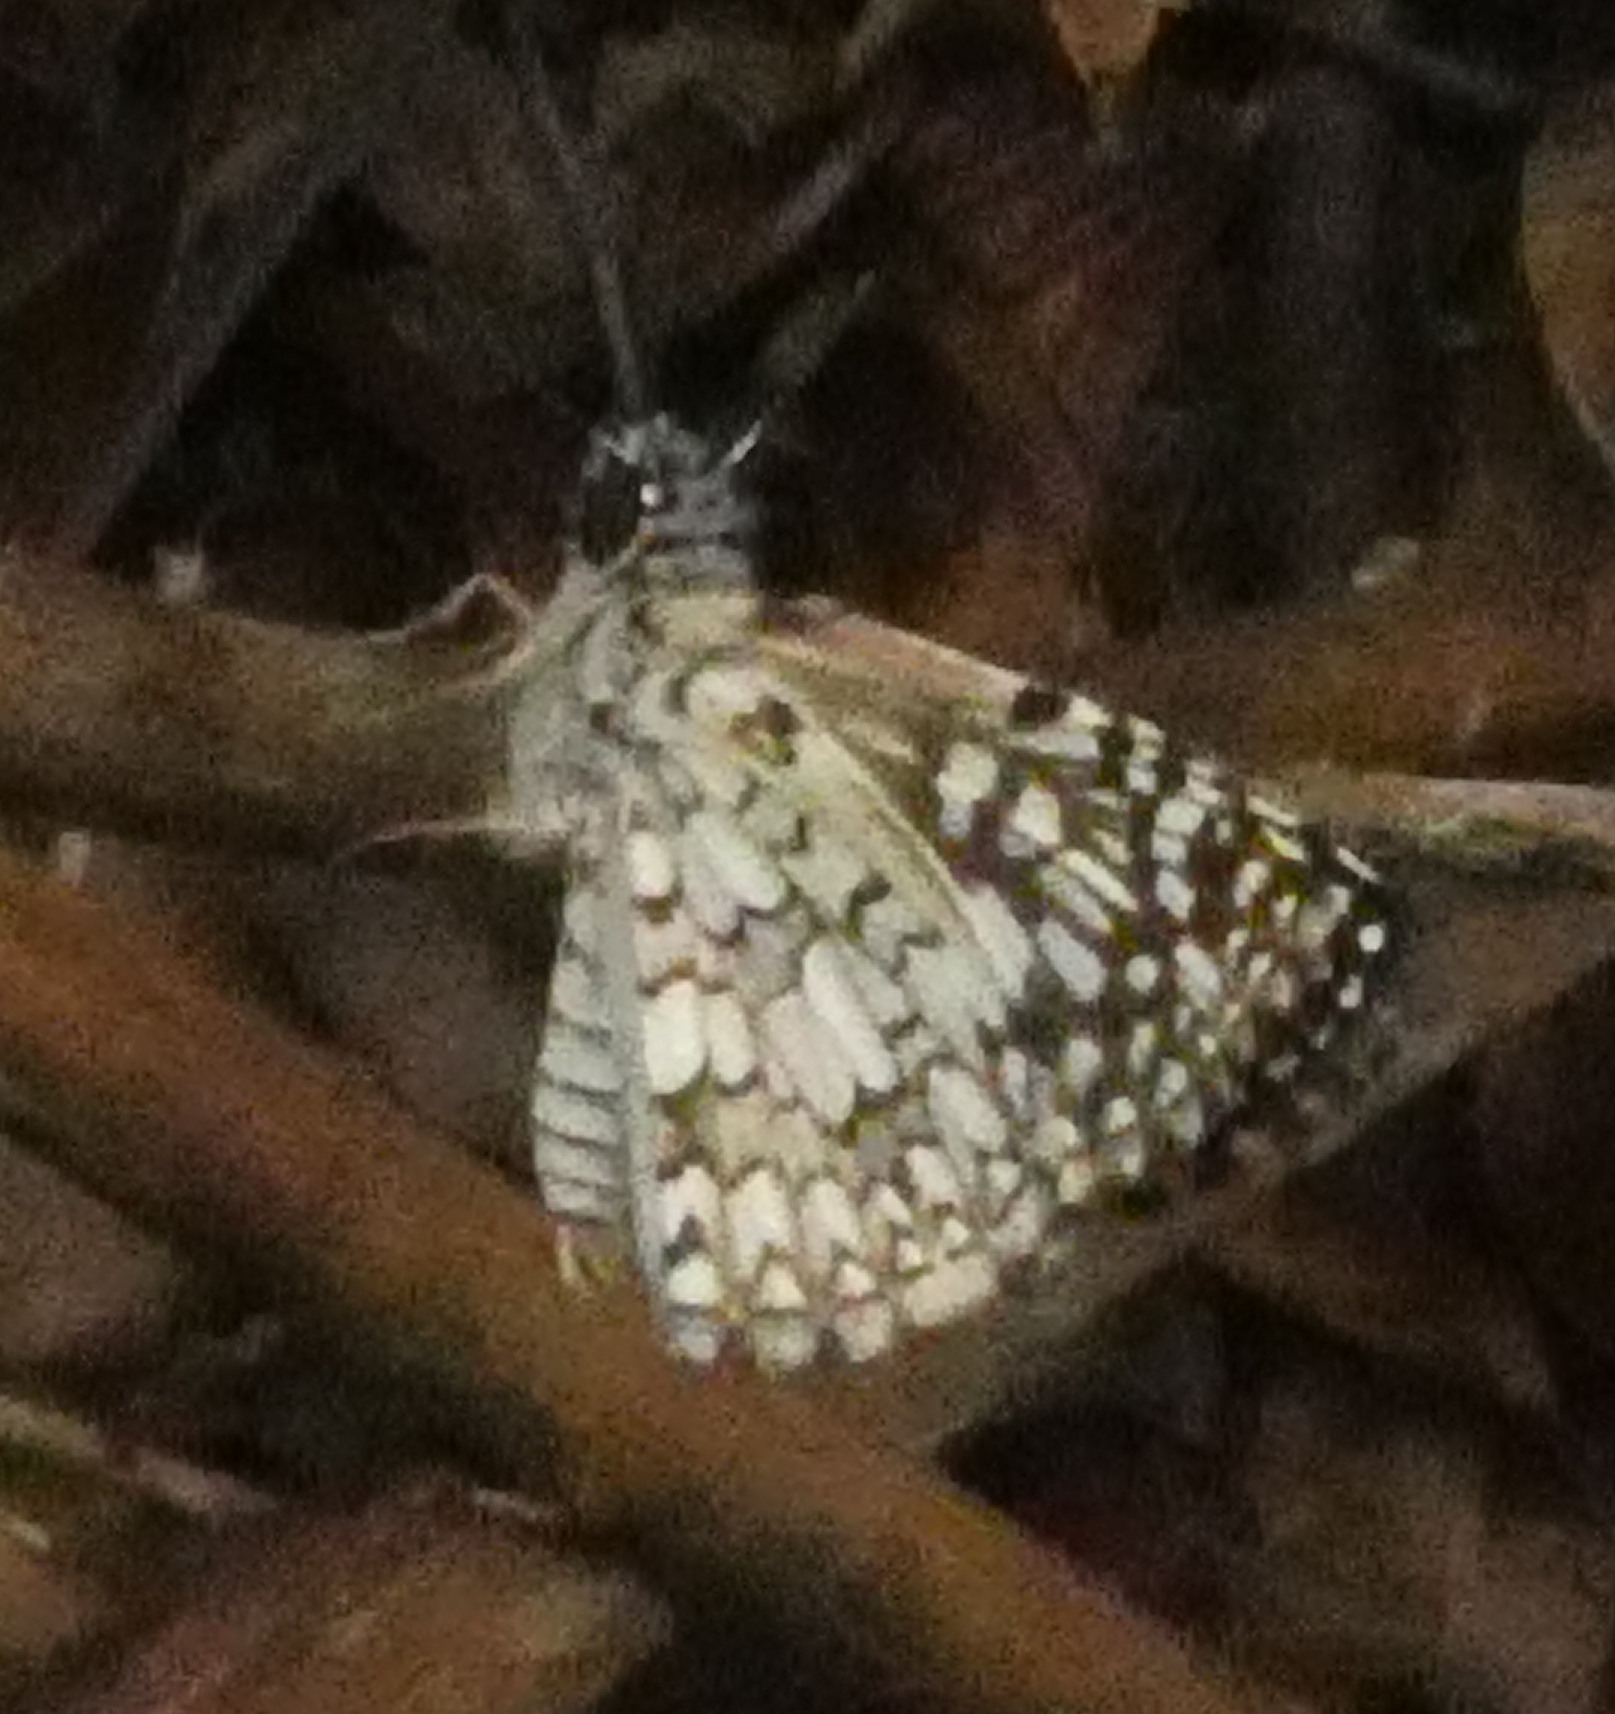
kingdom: Animalia
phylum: Arthropoda
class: Insecta
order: Lepidoptera
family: Hesperiidae
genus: Pyrgus
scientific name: Pyrgus oileus
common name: Tropical checkered-skipper
